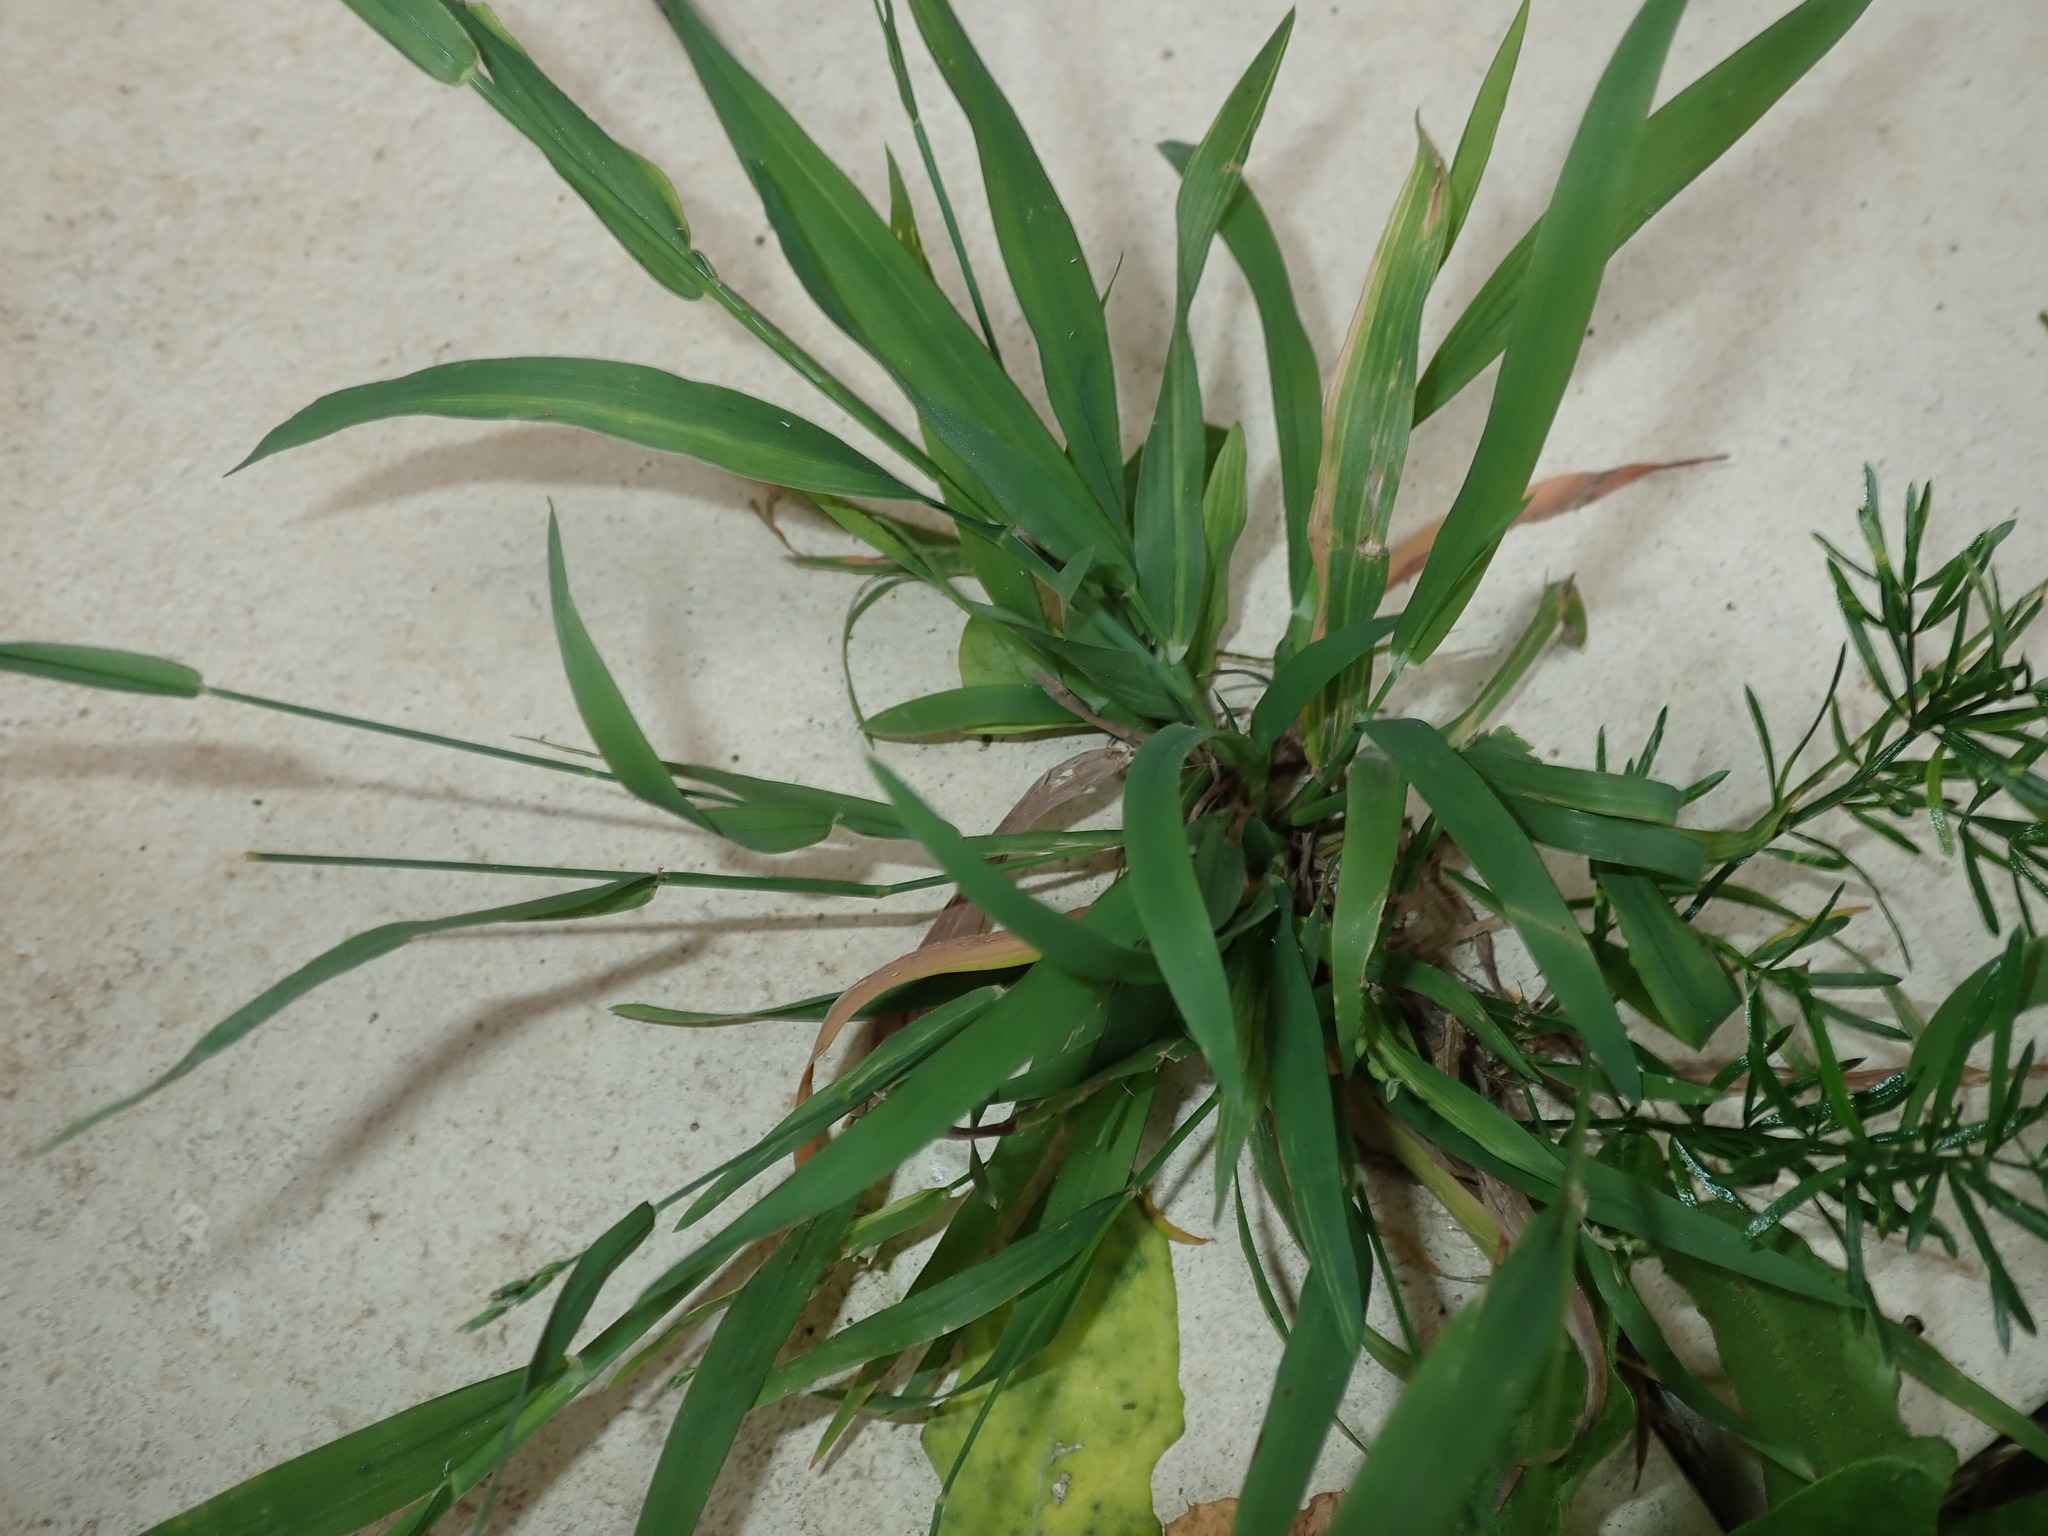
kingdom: Plantae
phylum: Tracheophyta
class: Liliopsida
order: Poales
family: Poaceae
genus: Ehrharta
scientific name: Ehrharta erecta
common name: Panic veldtgrass
